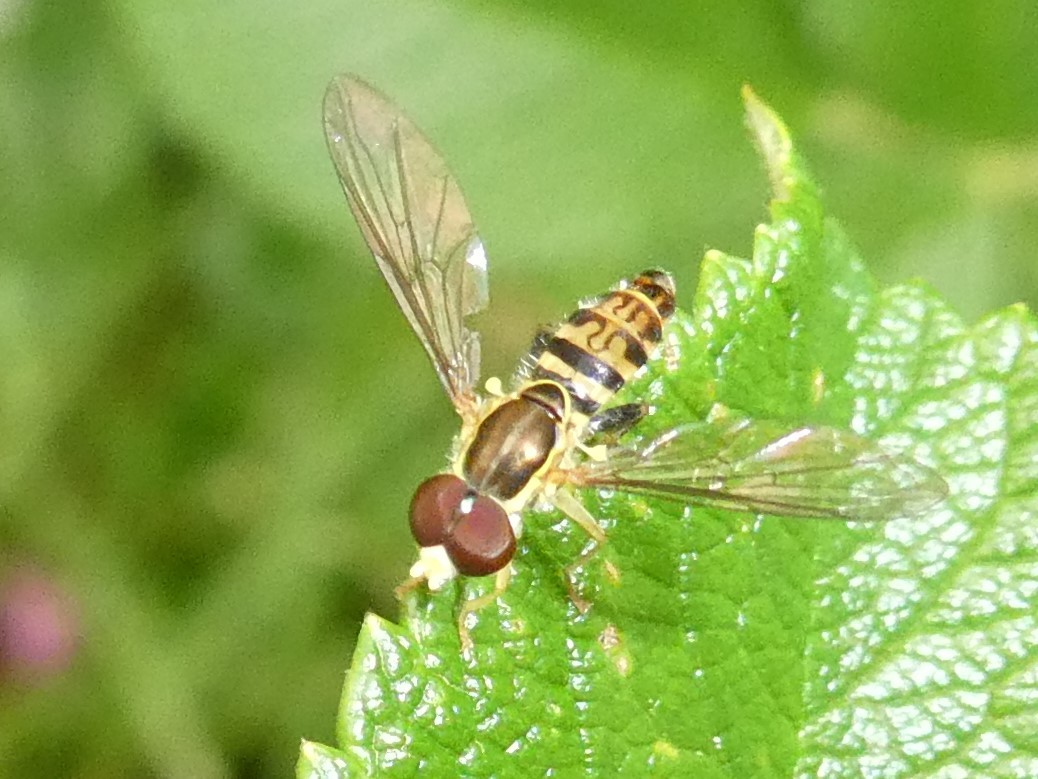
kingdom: Animalia
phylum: Arthropoda
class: Insecta
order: Diptera
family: Syrphidae
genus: Toxomerus
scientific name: Toxomerus geminatus
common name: Eastern calligrapher
